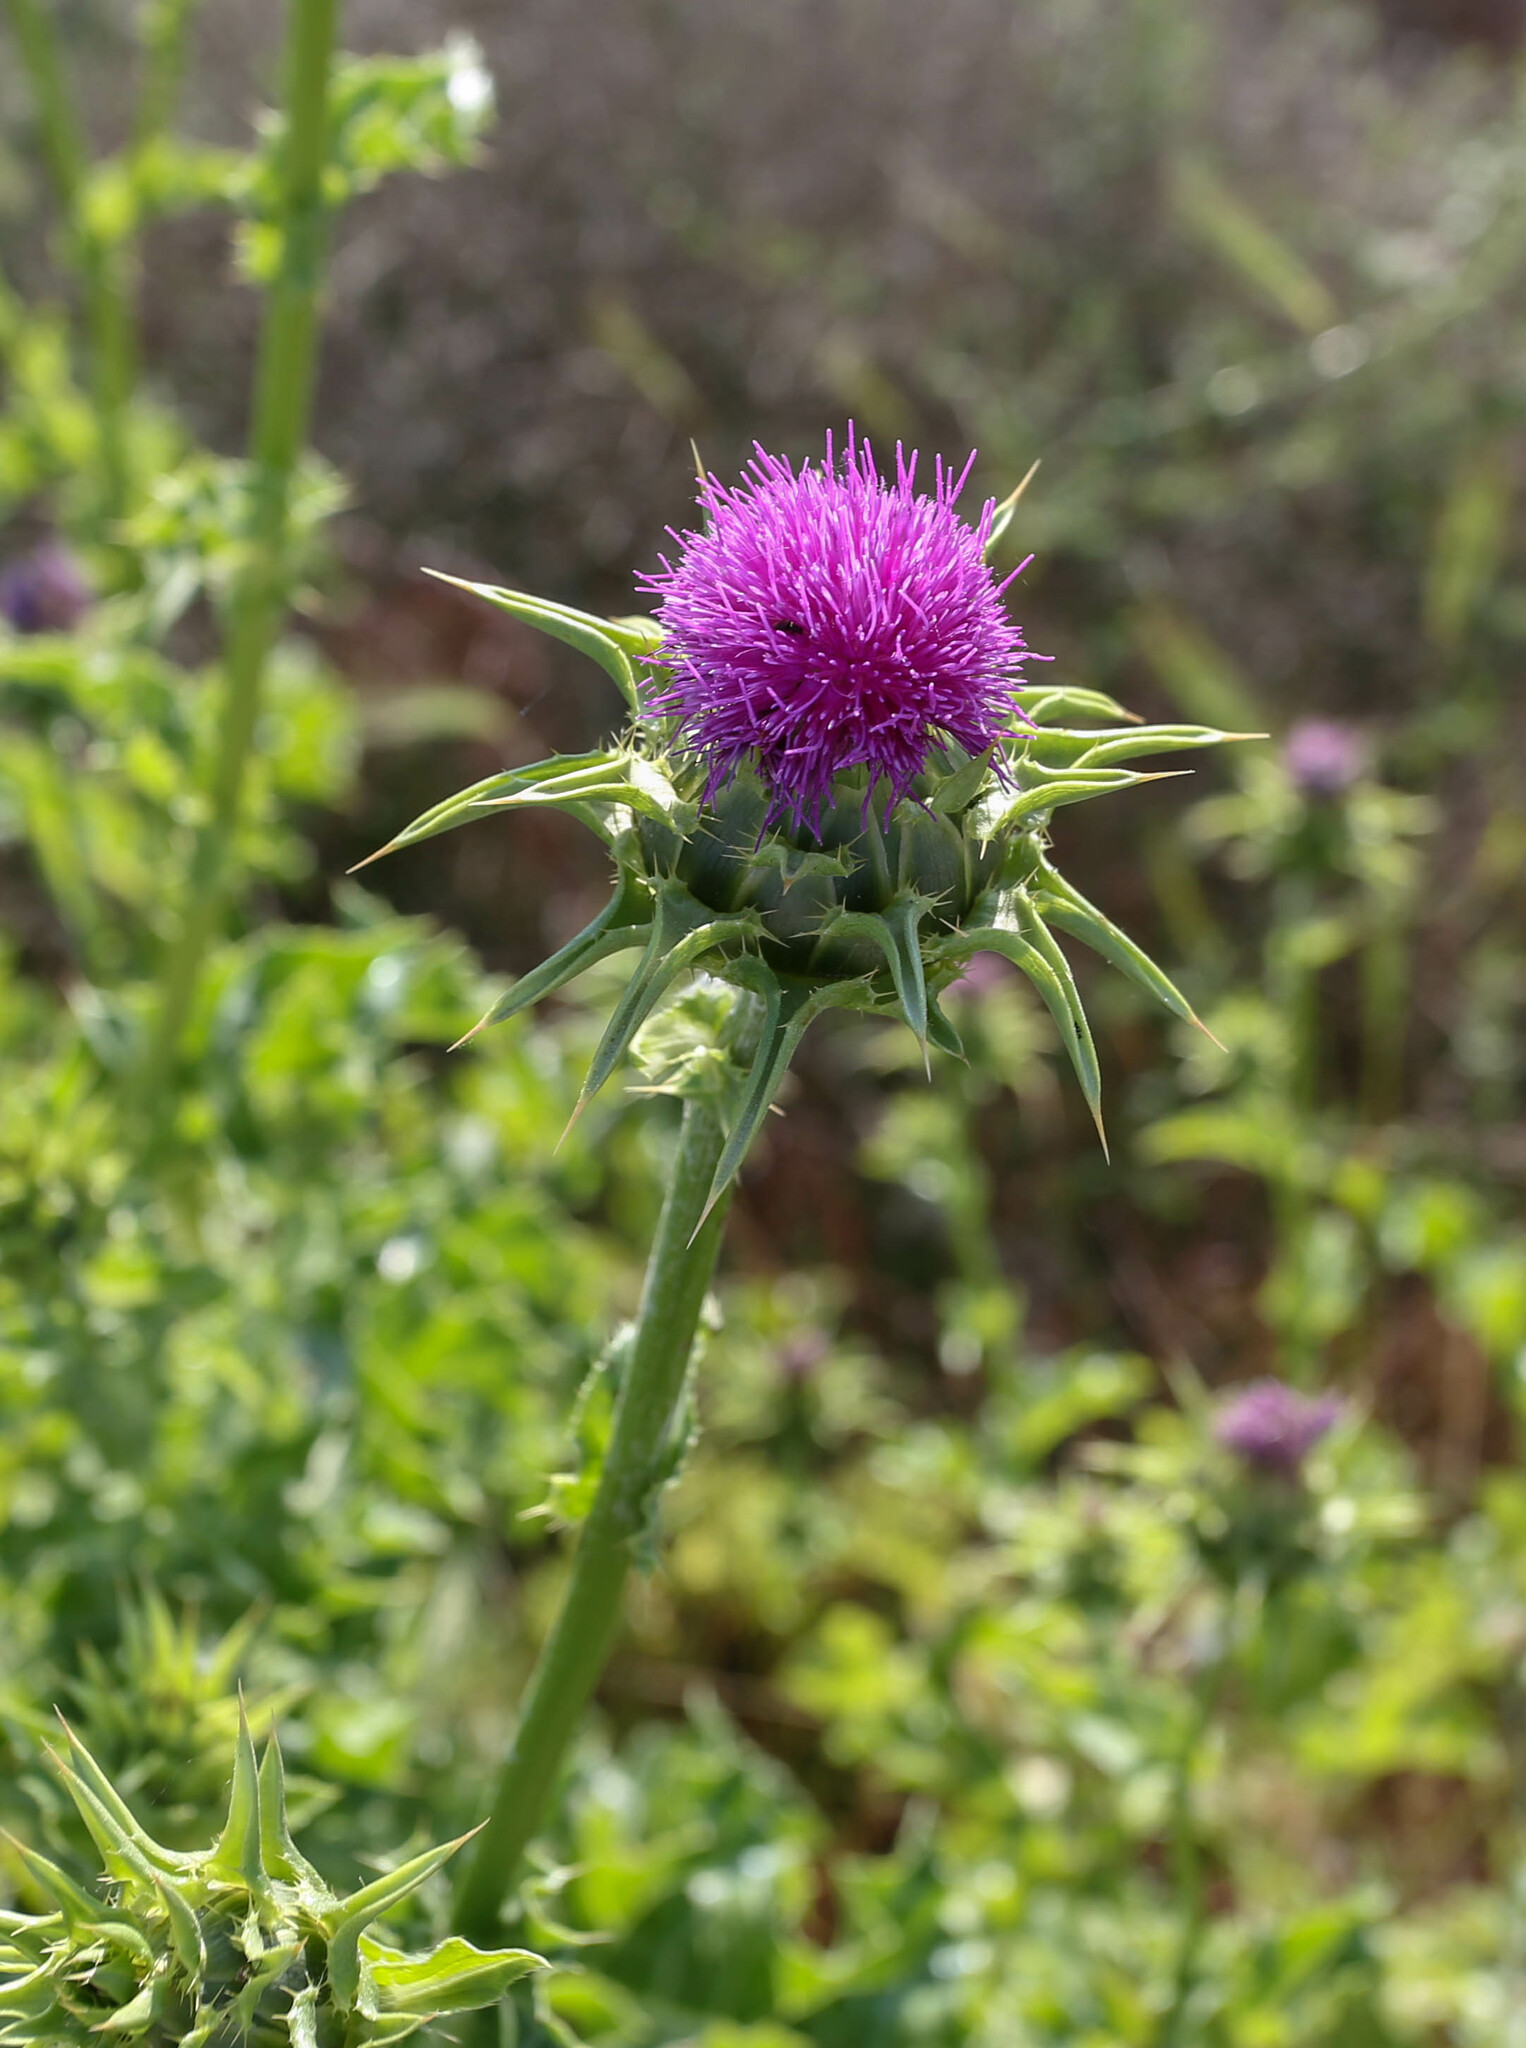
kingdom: Plantae
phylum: Tracheophyta
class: Magnoliopsida
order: Asterales
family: Asteraceae
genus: Silybum
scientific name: Silybum marianum
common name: Milk thistle
